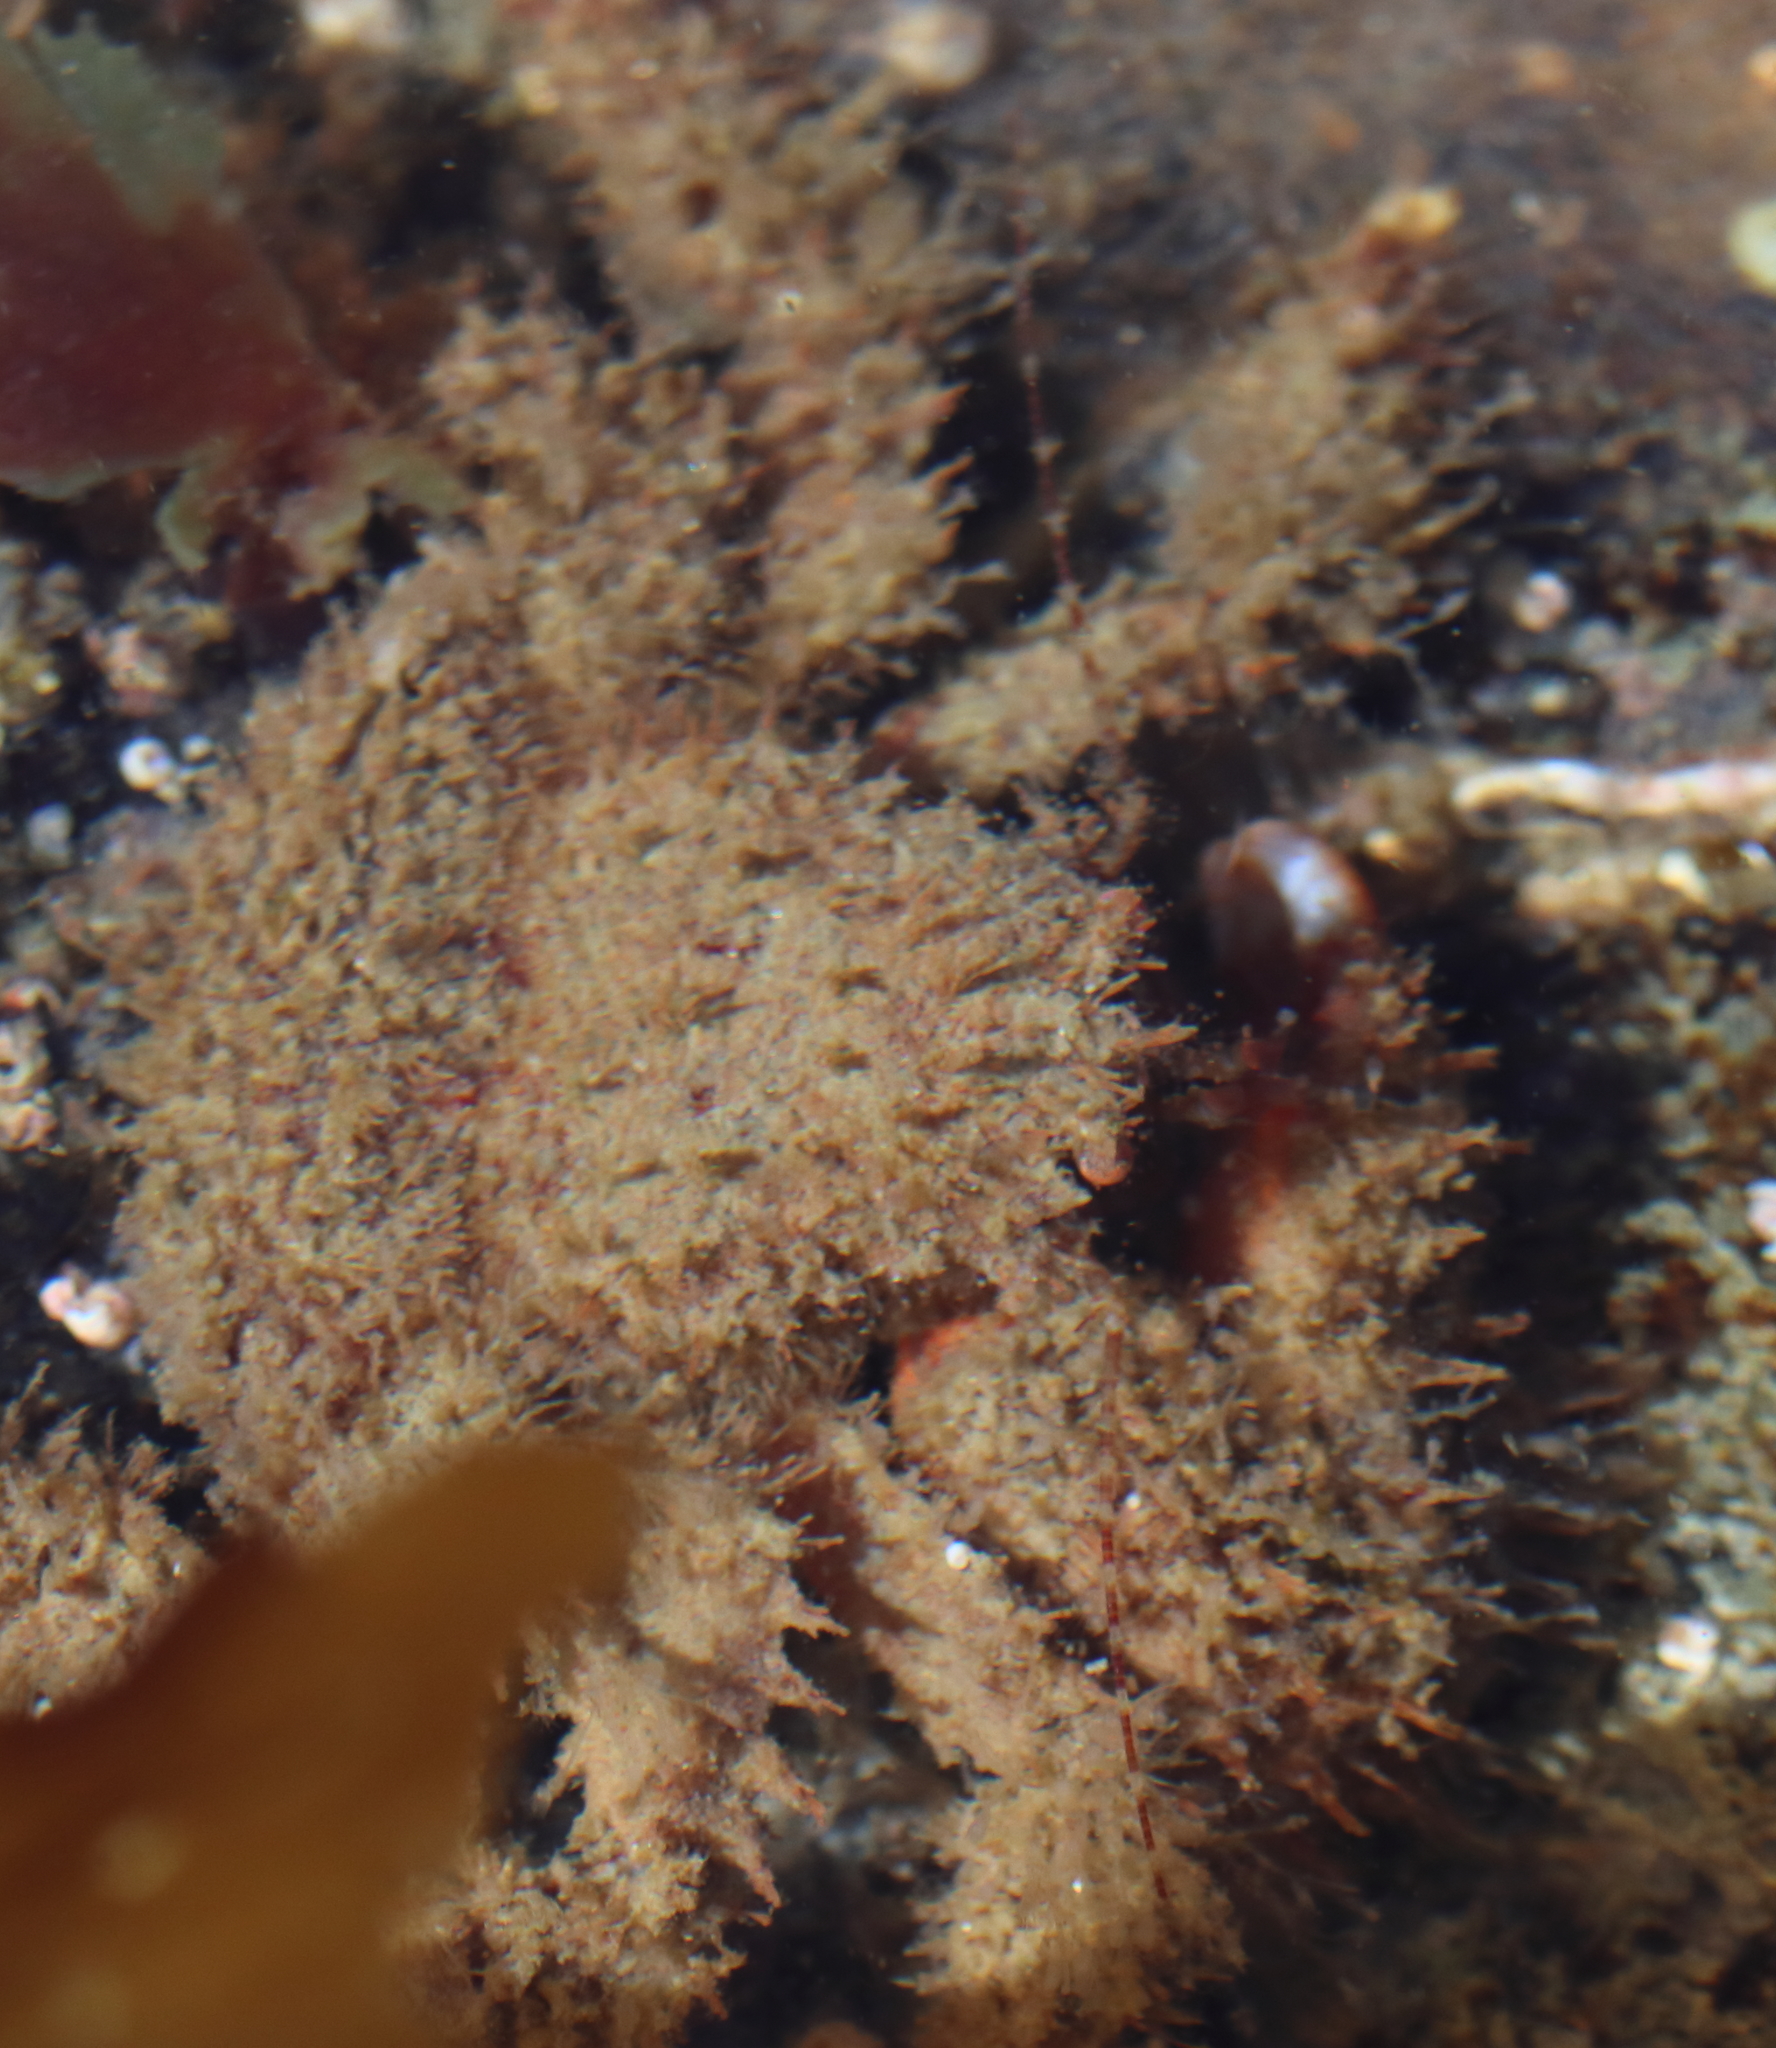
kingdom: Animalia
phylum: Arthropoda
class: Malacostraca
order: Decapoda
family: Hapalogastridae
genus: Hapalogaster
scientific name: Hapalogaster mertensii
